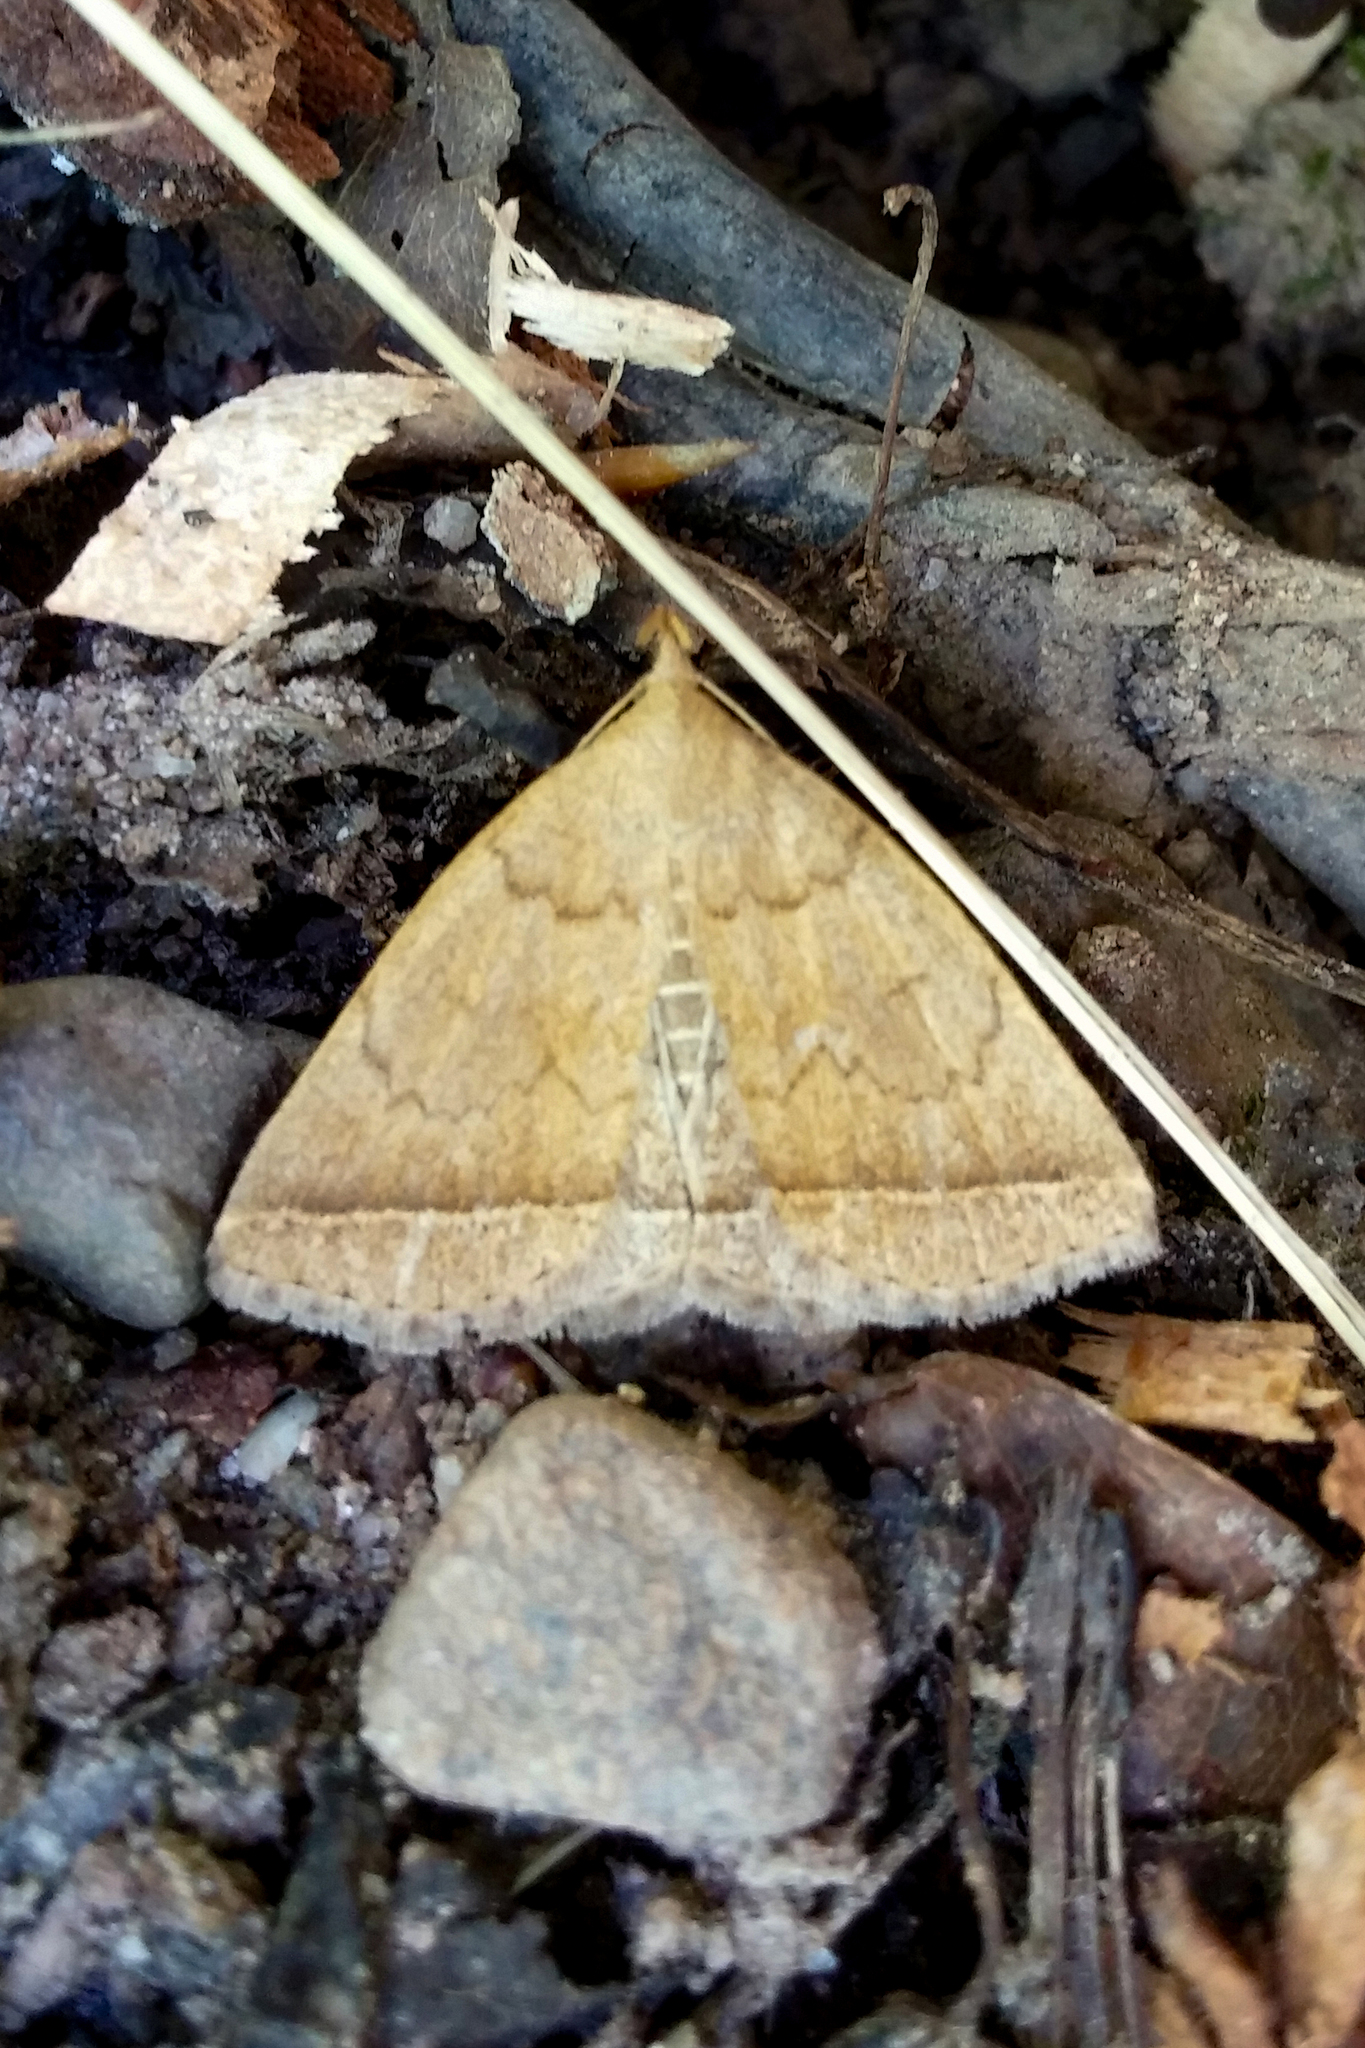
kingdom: Animalia
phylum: Arthropoda
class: Insecta
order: Lepidoptera
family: Erebidae
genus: Zanclognatha
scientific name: Zanclognatha jacchusalis
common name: Yellowish zanclognatha
